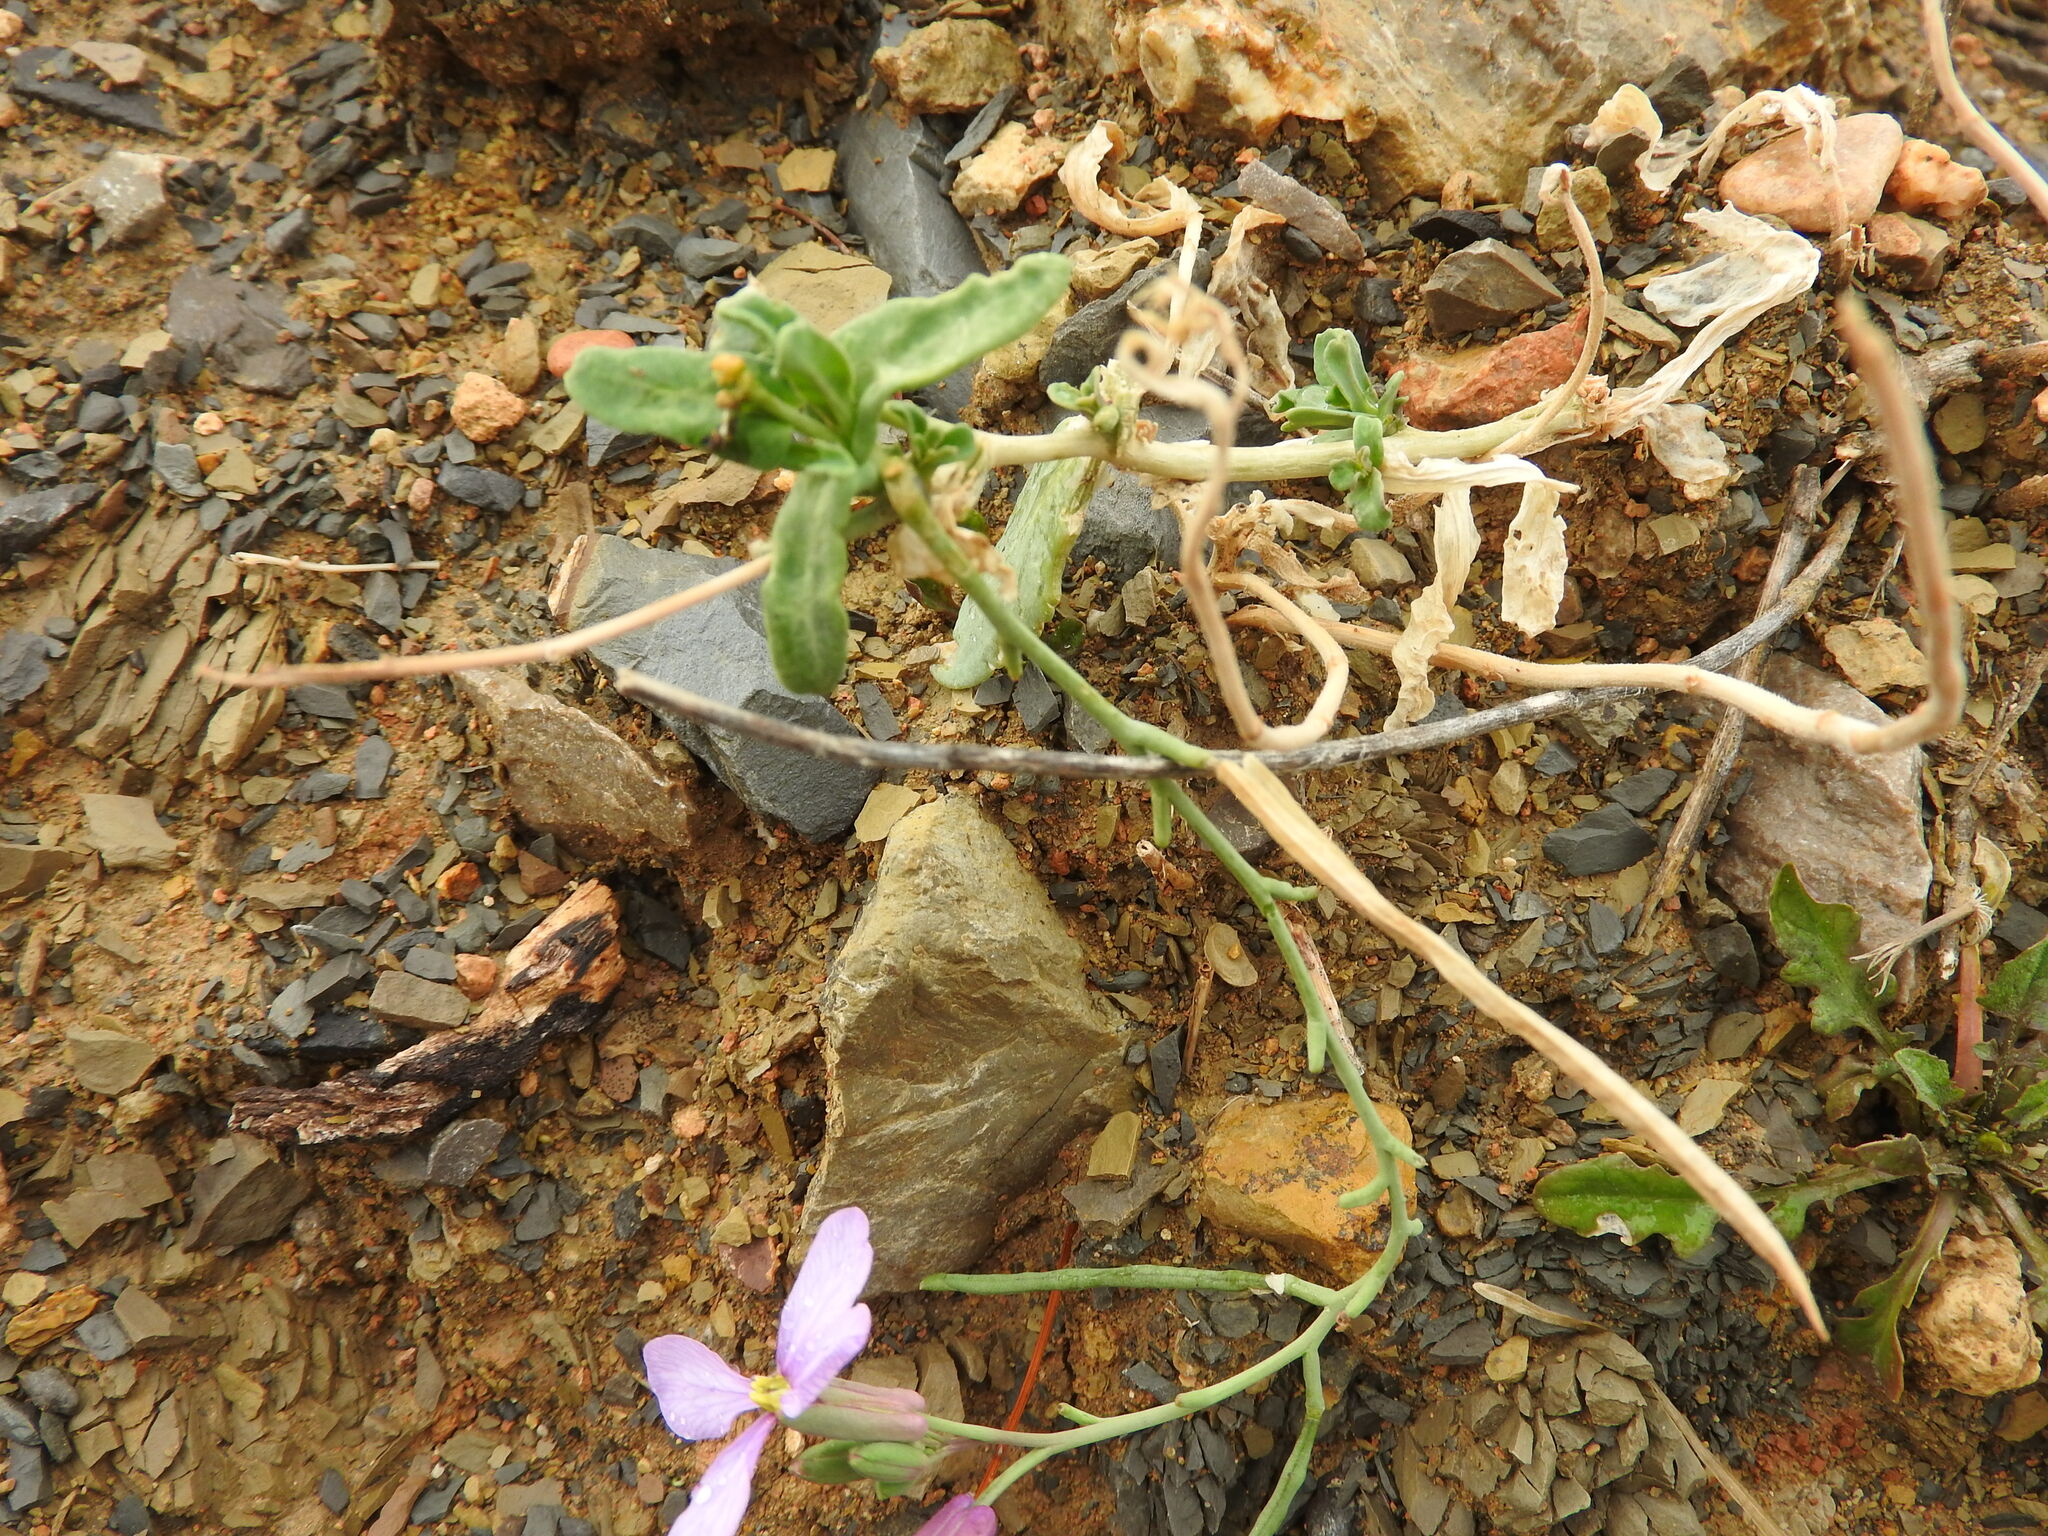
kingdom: Plantae
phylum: Tracheophyta
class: Magnoliopsida
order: Brassicales
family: Brassicaceae
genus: Moricandia
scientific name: Moricandia suffruticosa
